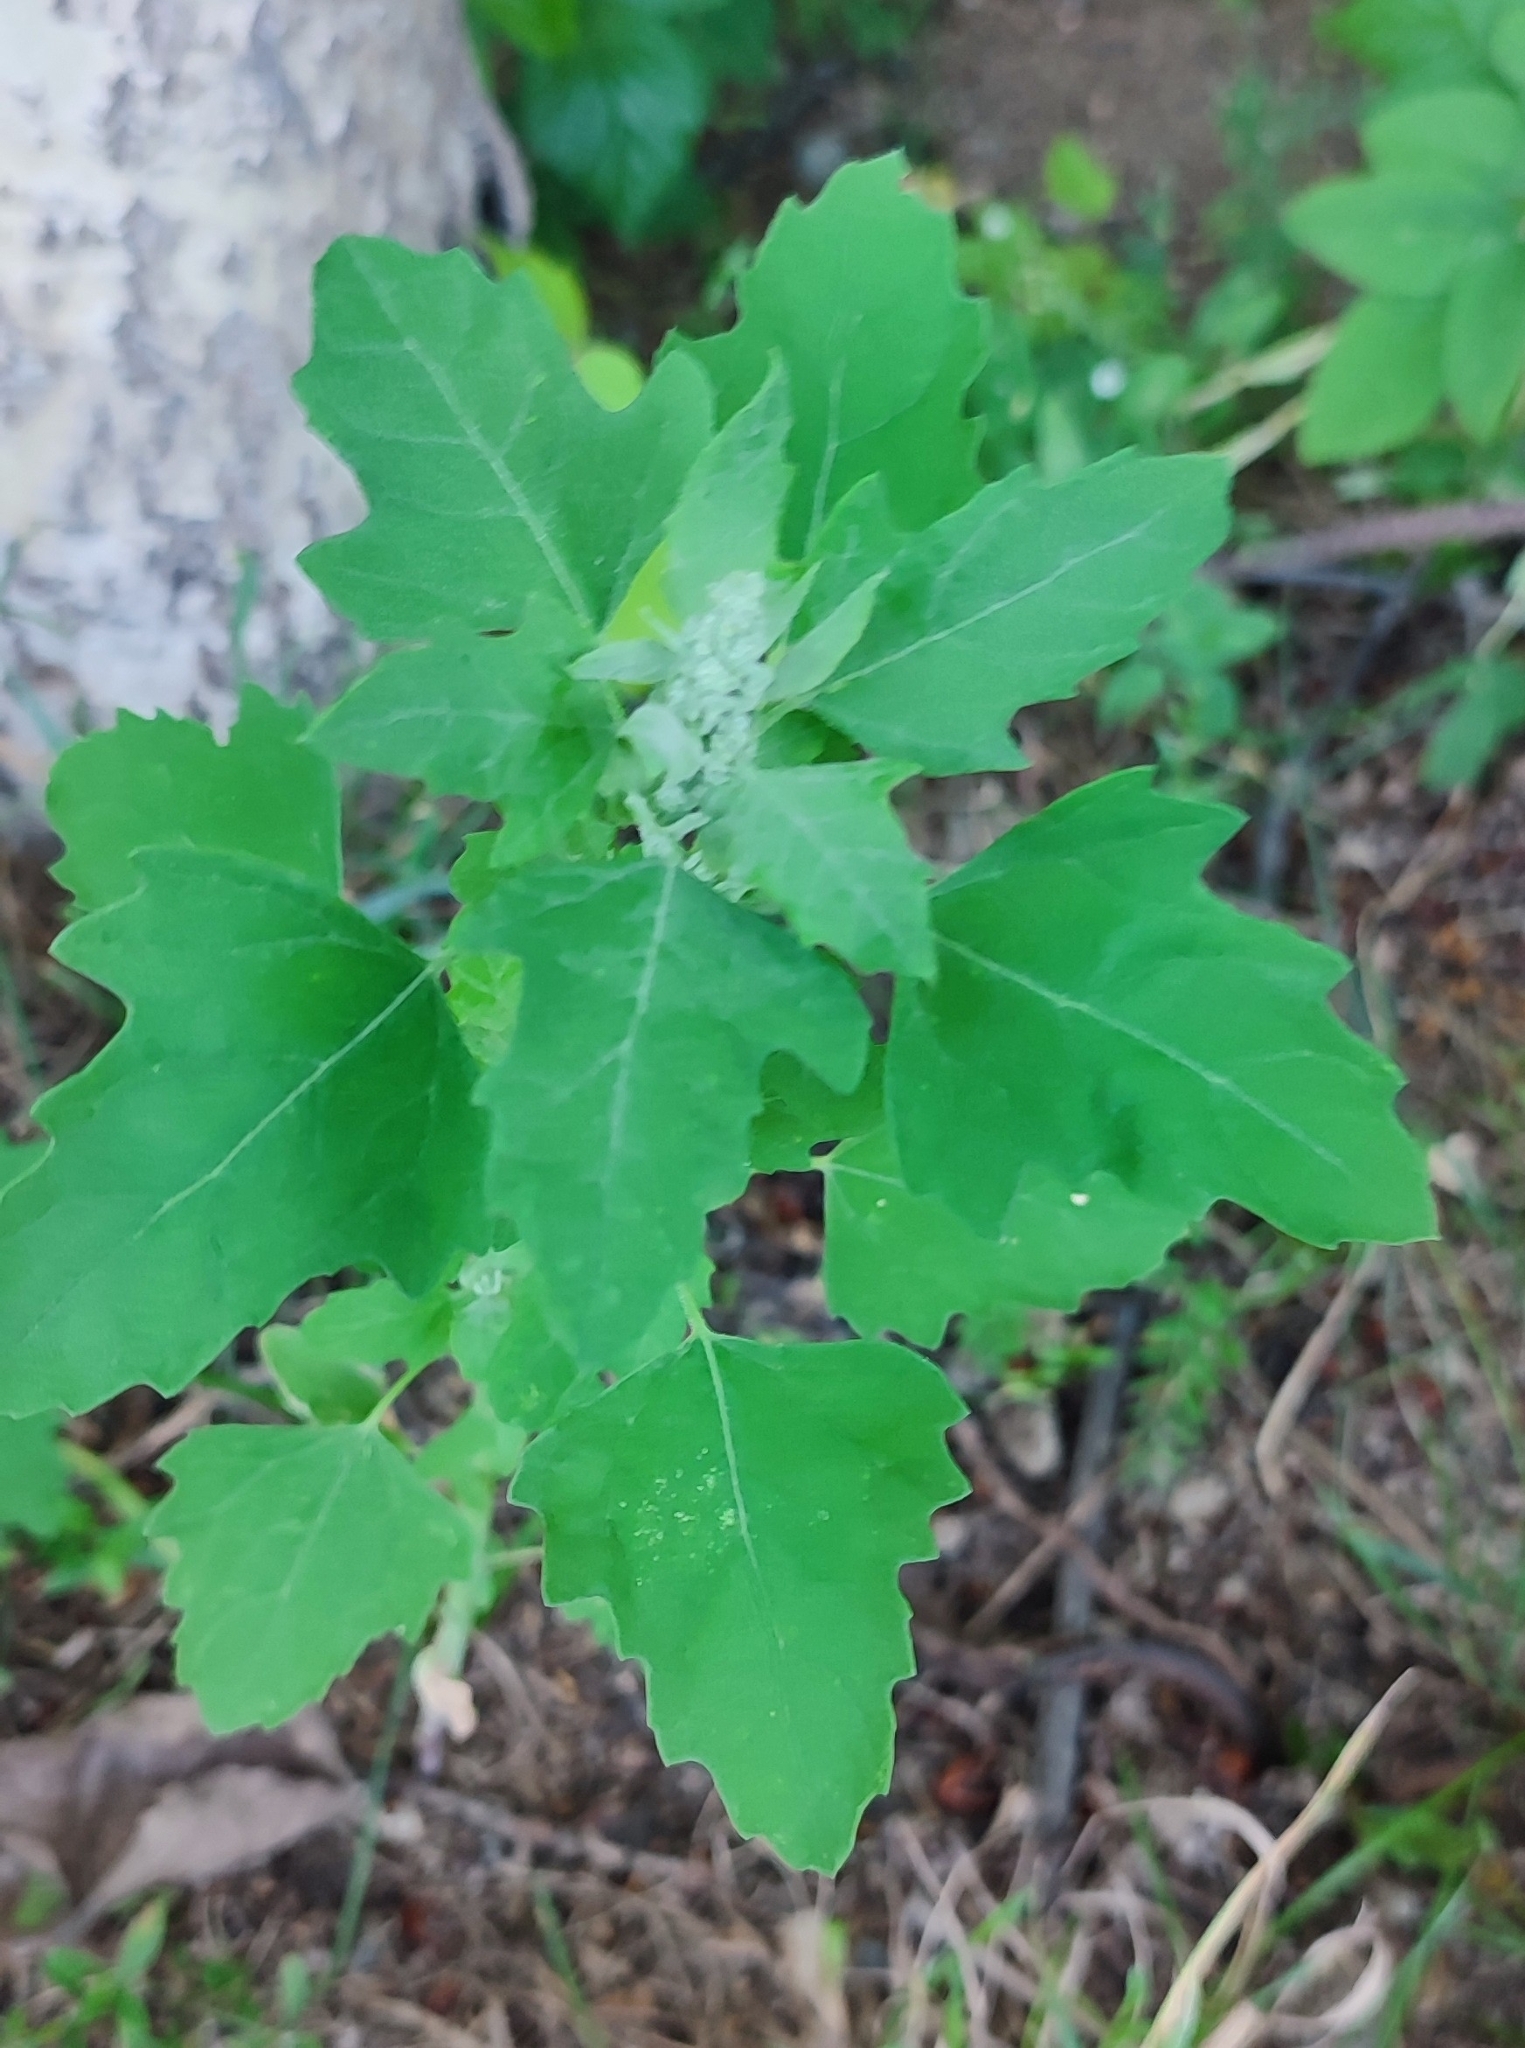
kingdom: Plantae
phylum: Tracheophyta
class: Magnoliopsida
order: Caryophyllales
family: Amaranthaceae
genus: Chenopodium
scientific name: Chenopodium album
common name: Fat-hen
